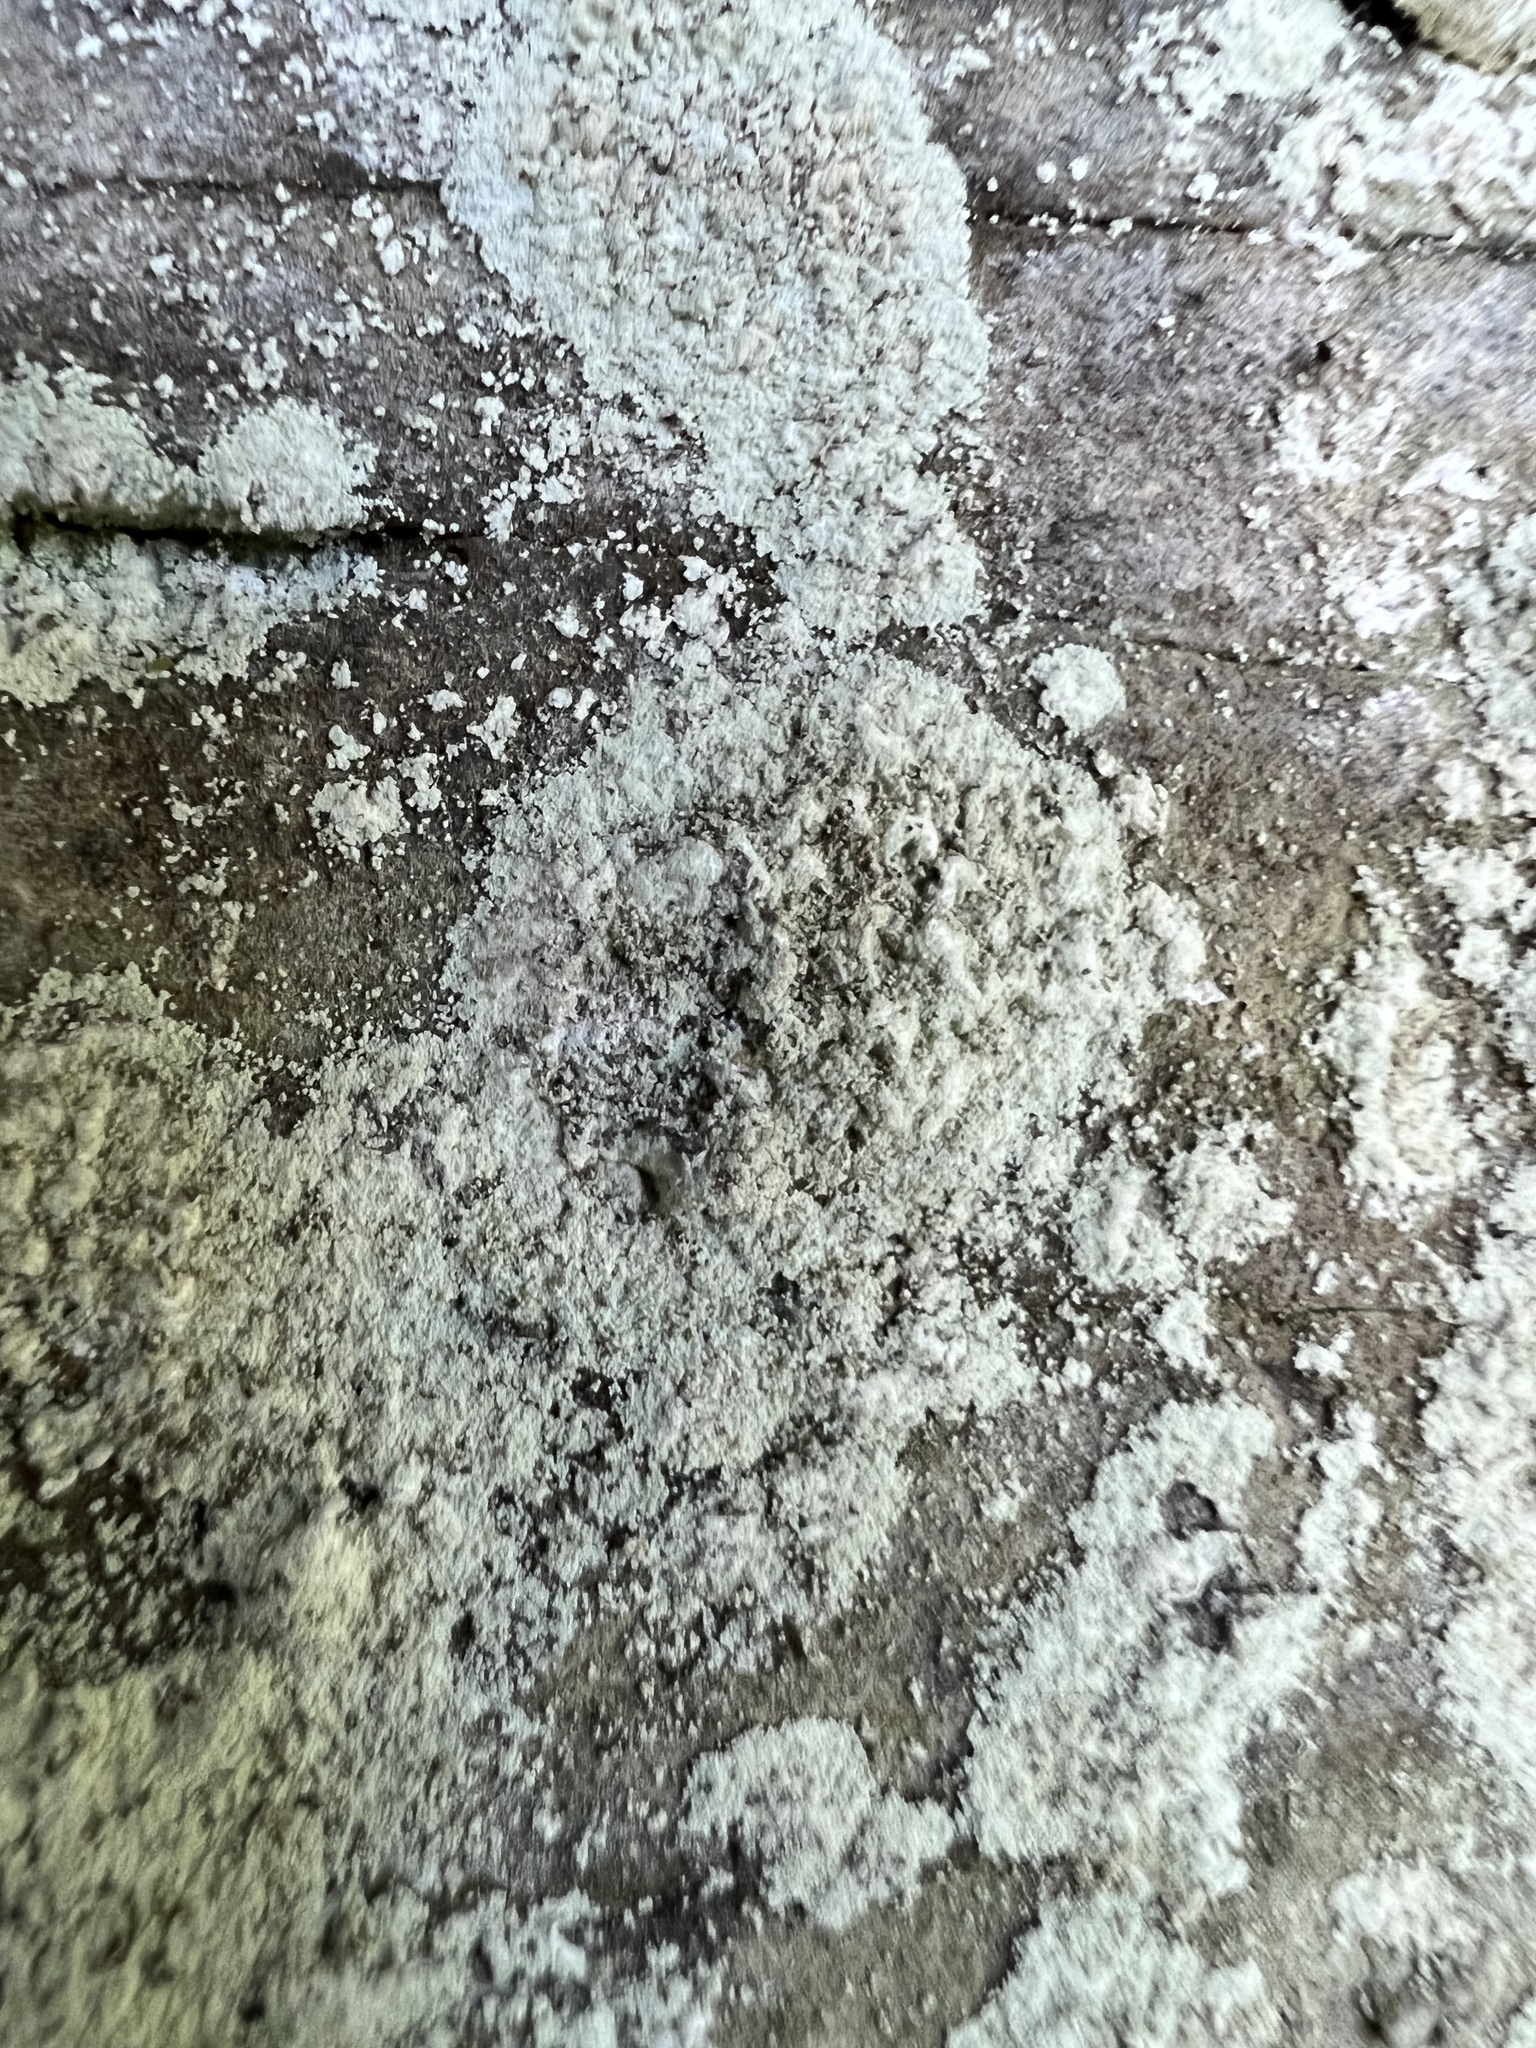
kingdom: Fungi
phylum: Ascomycota
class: Lecanoromycetes
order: Lecideales
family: Lecideaceae
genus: Porpidia
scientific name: Porpidia albocaerulescens
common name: Smokey-eyed boulder lichen
